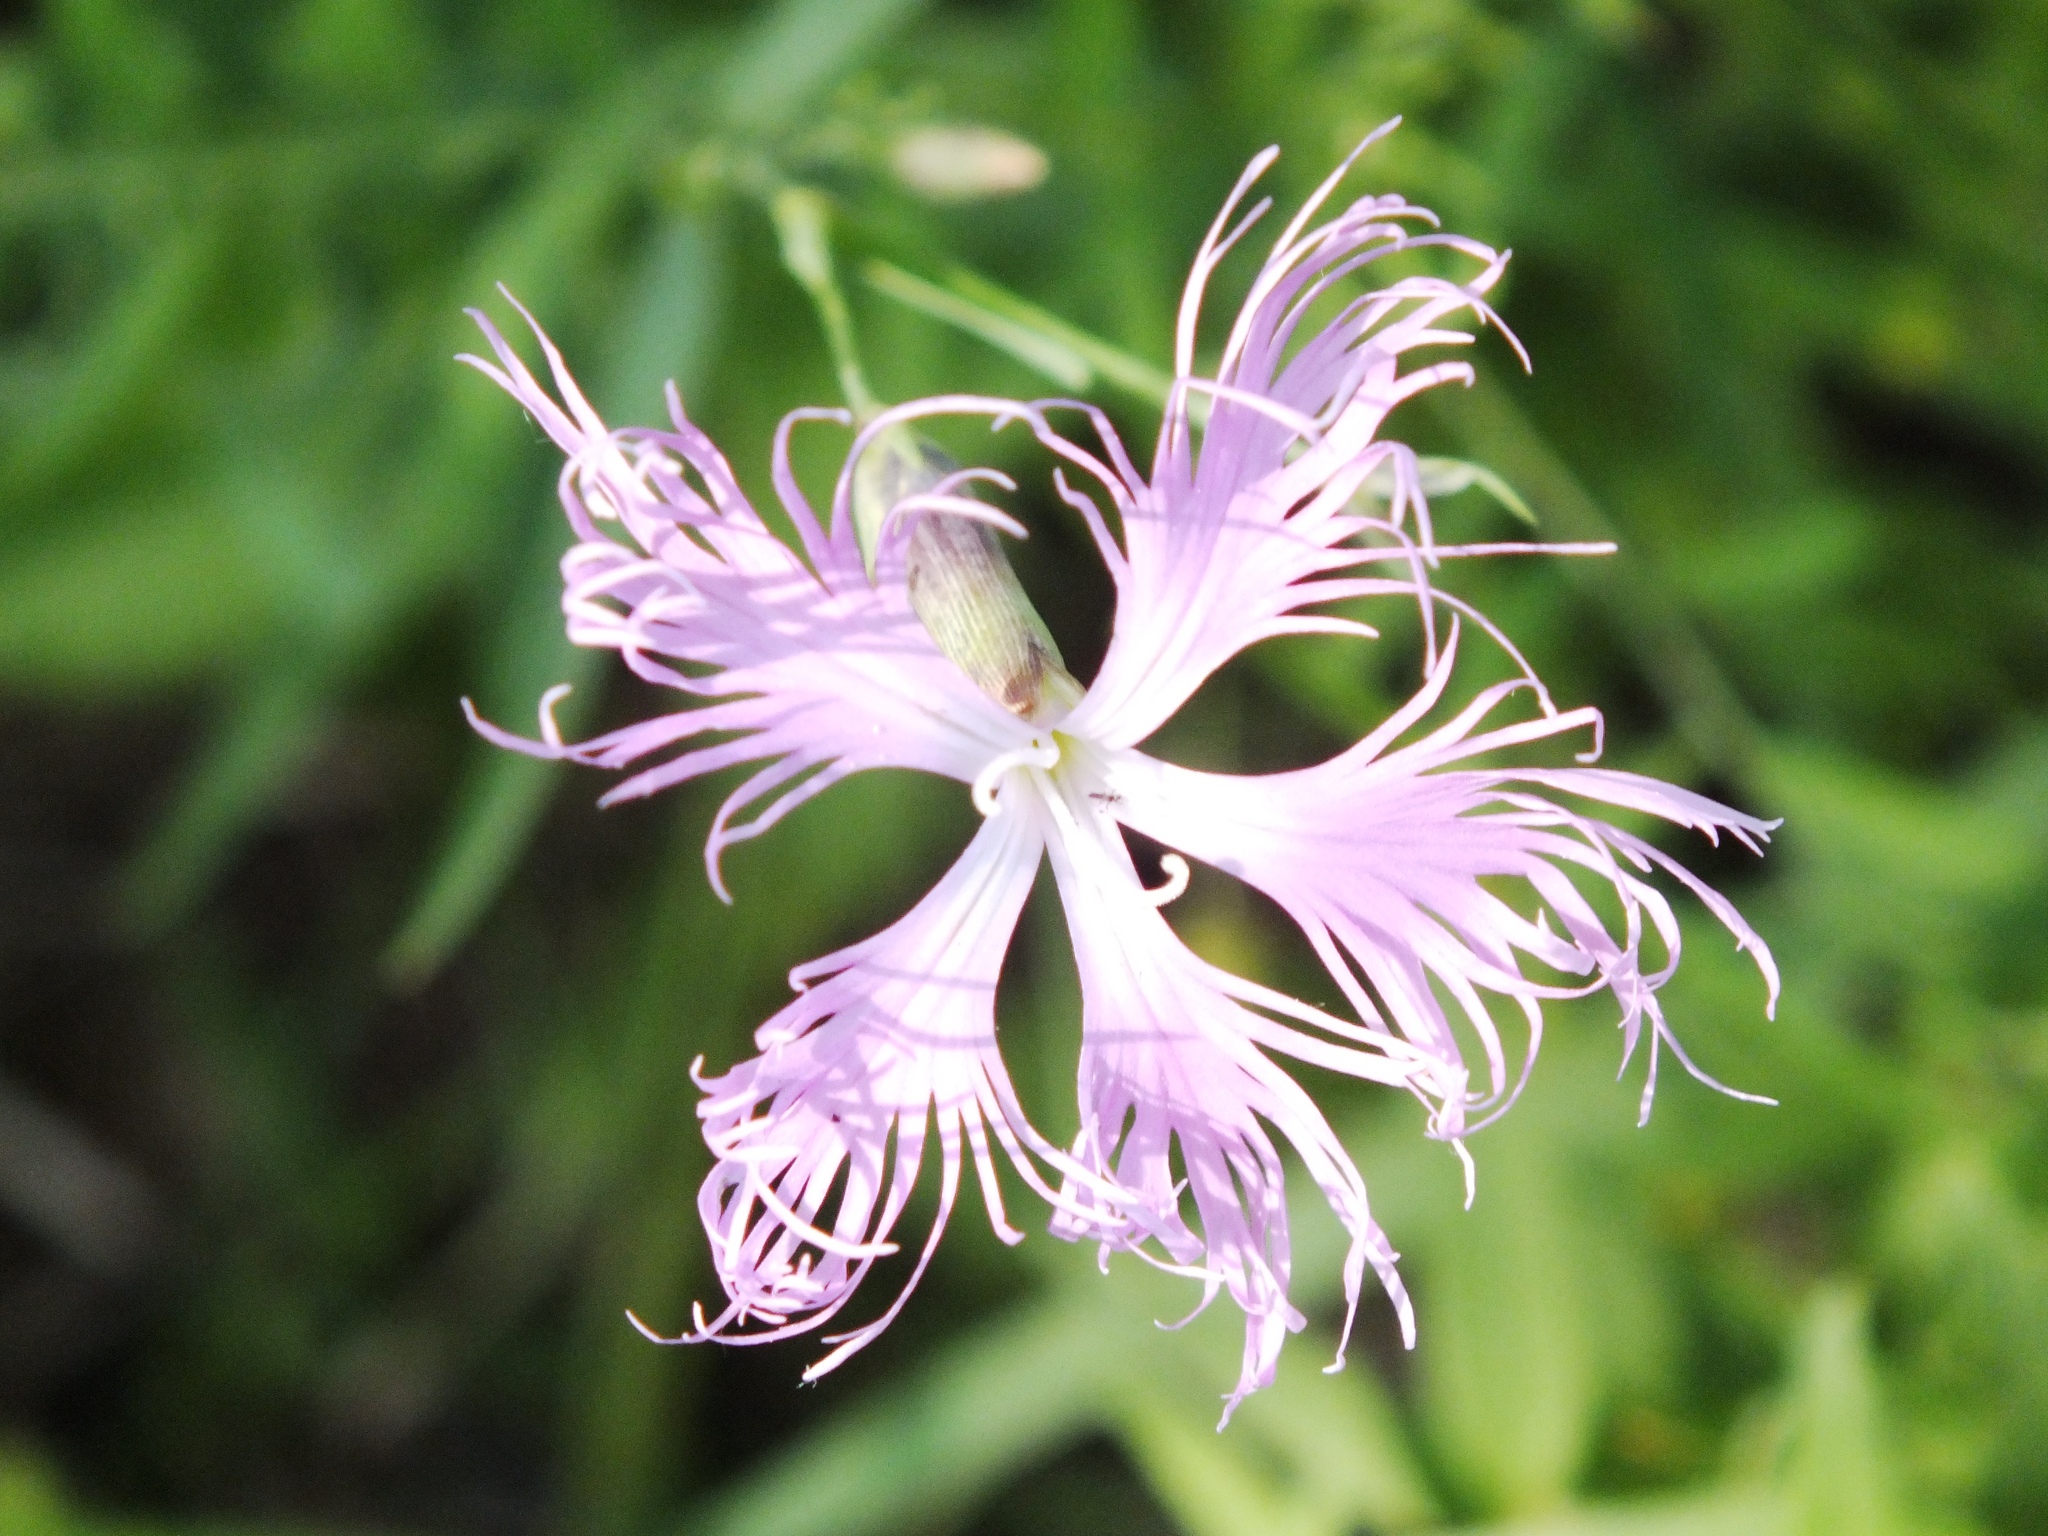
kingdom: Plantae
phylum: Tracheophyta
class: Magnoliopsida
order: Caryophyllales
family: Caryophyllaceae
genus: Dianthus
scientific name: Dianthus superbus
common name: Fringed pink
